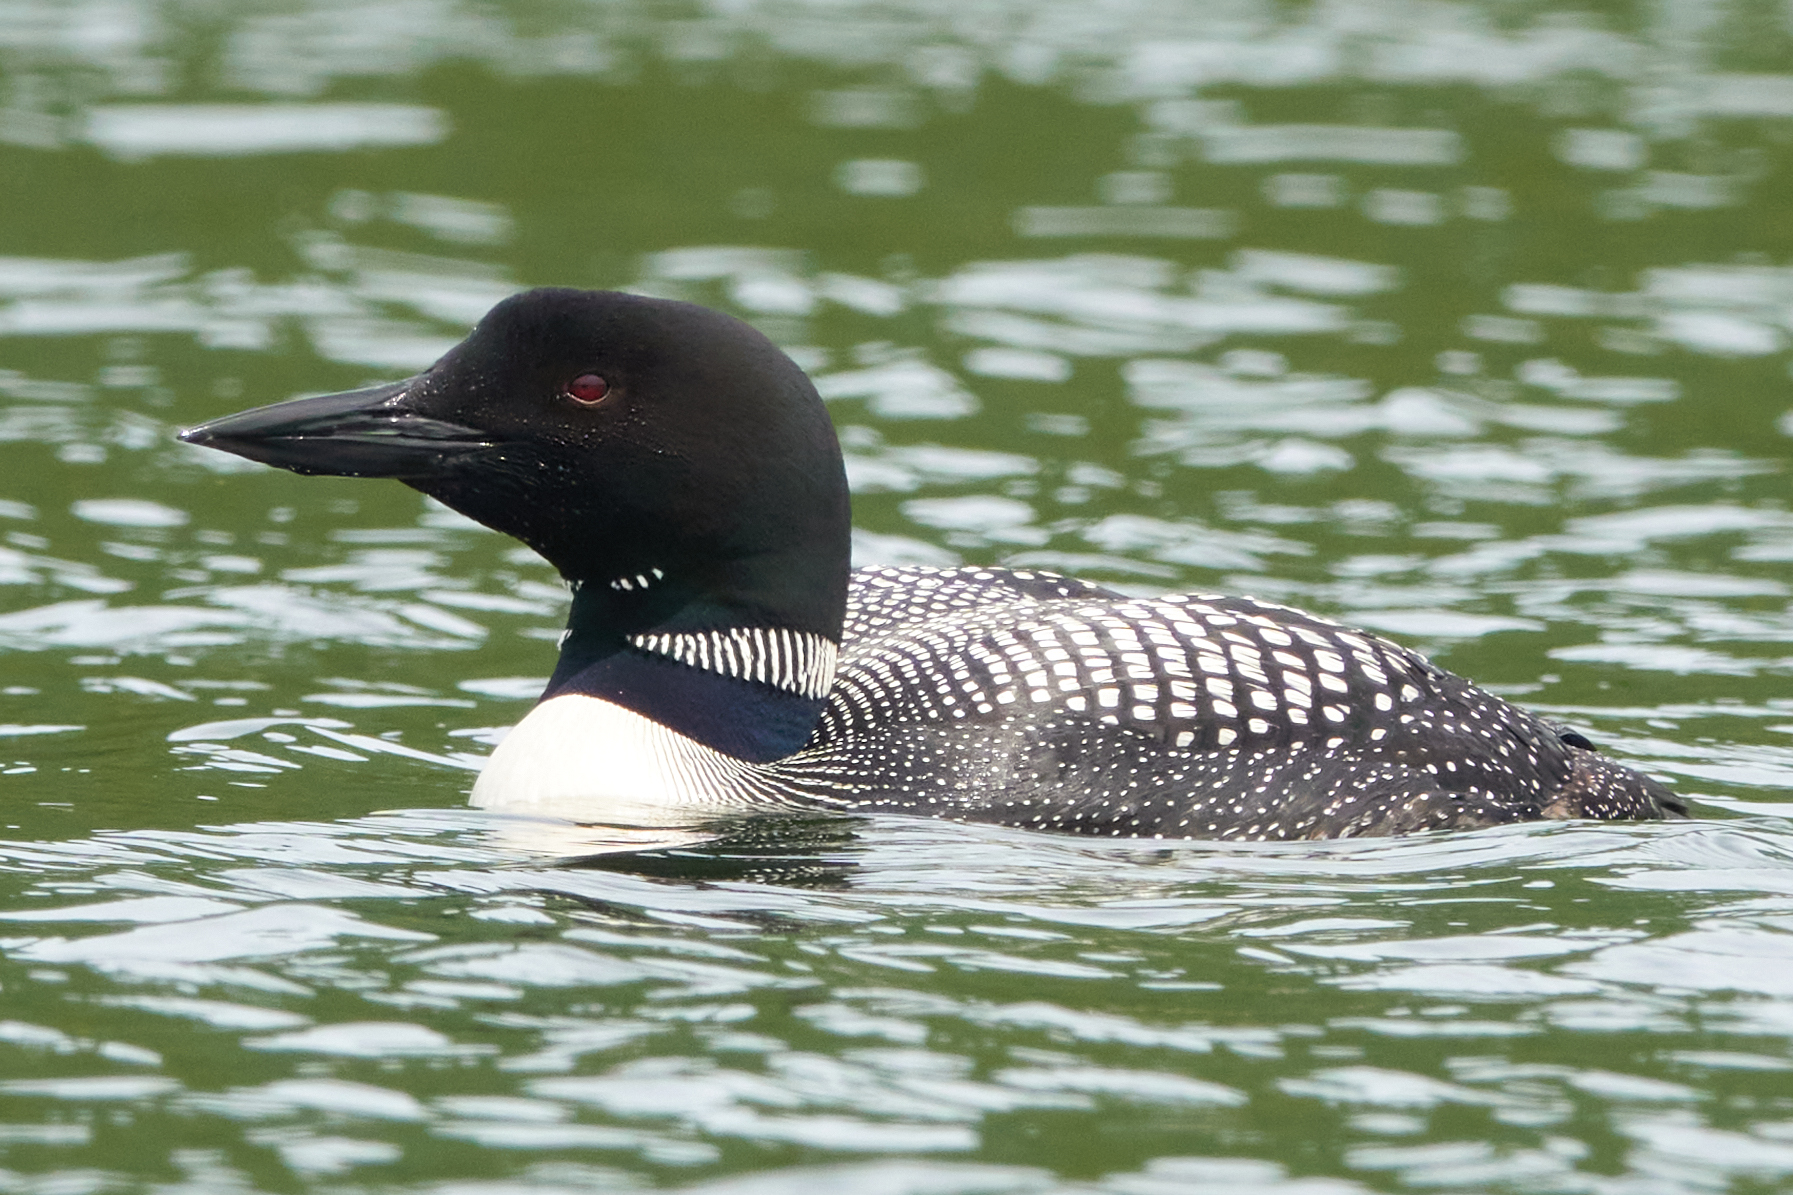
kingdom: Animalia
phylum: Chordata
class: Aves
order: Gaviiformes
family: Gaviidae
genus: Gavia
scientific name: Gavia immer
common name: Common loon
